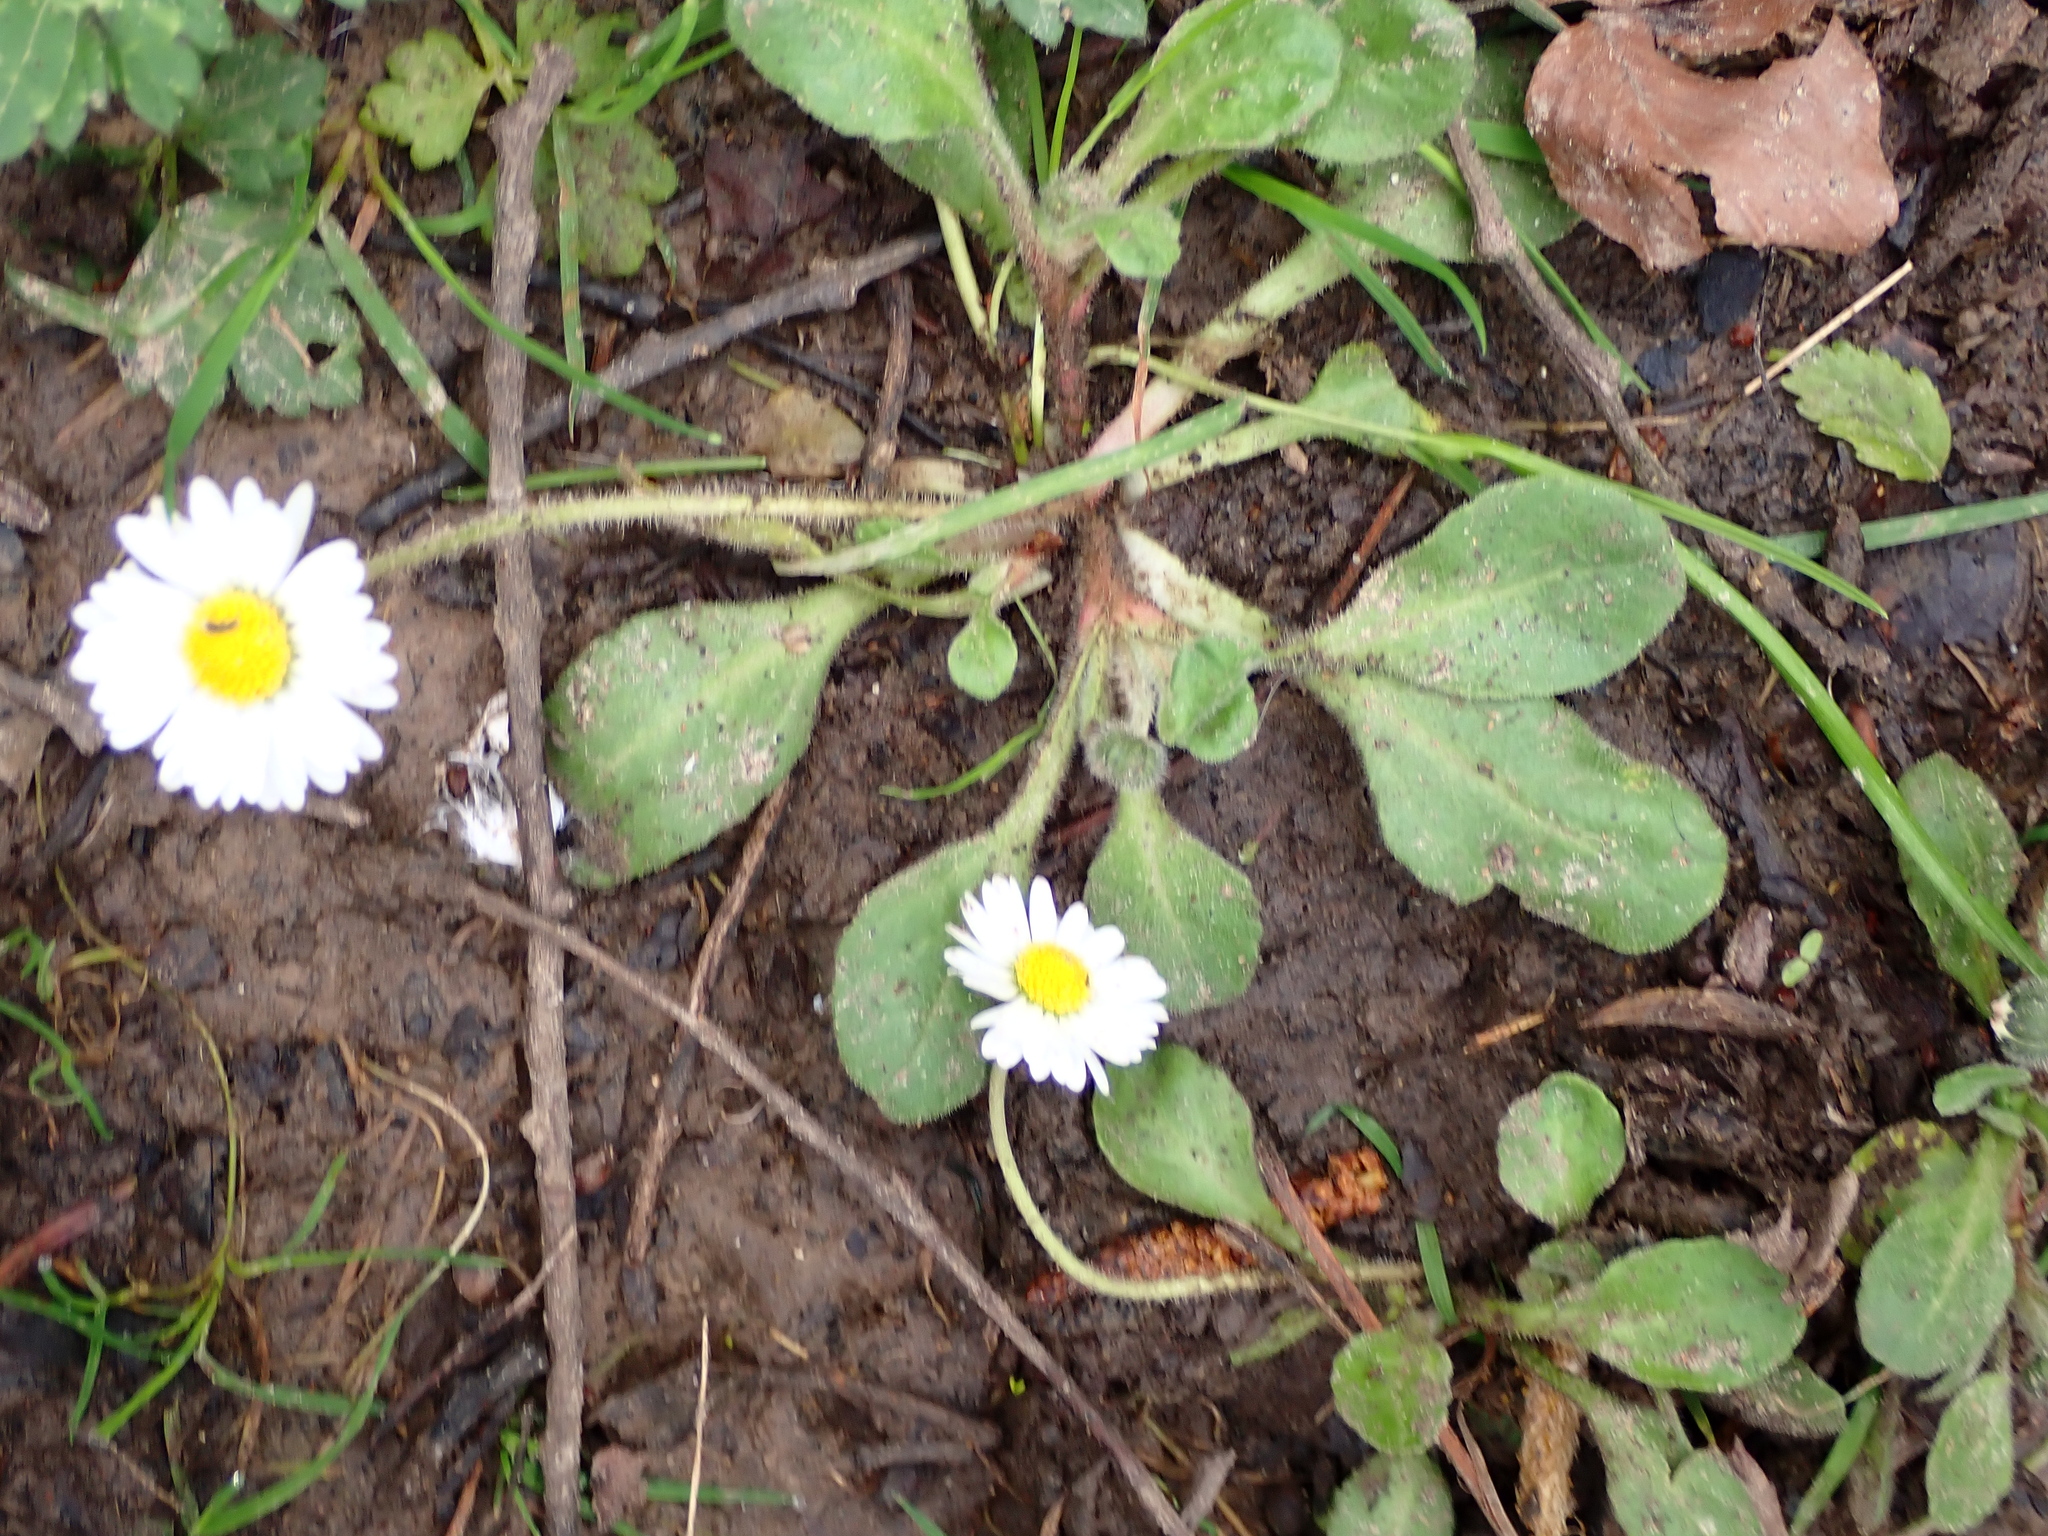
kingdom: Plantae
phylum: Tracheophyta
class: Magnoliopsida
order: Asterales
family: Asteraceae
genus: Bellis
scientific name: Bellis perennis
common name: Lawndaisy
